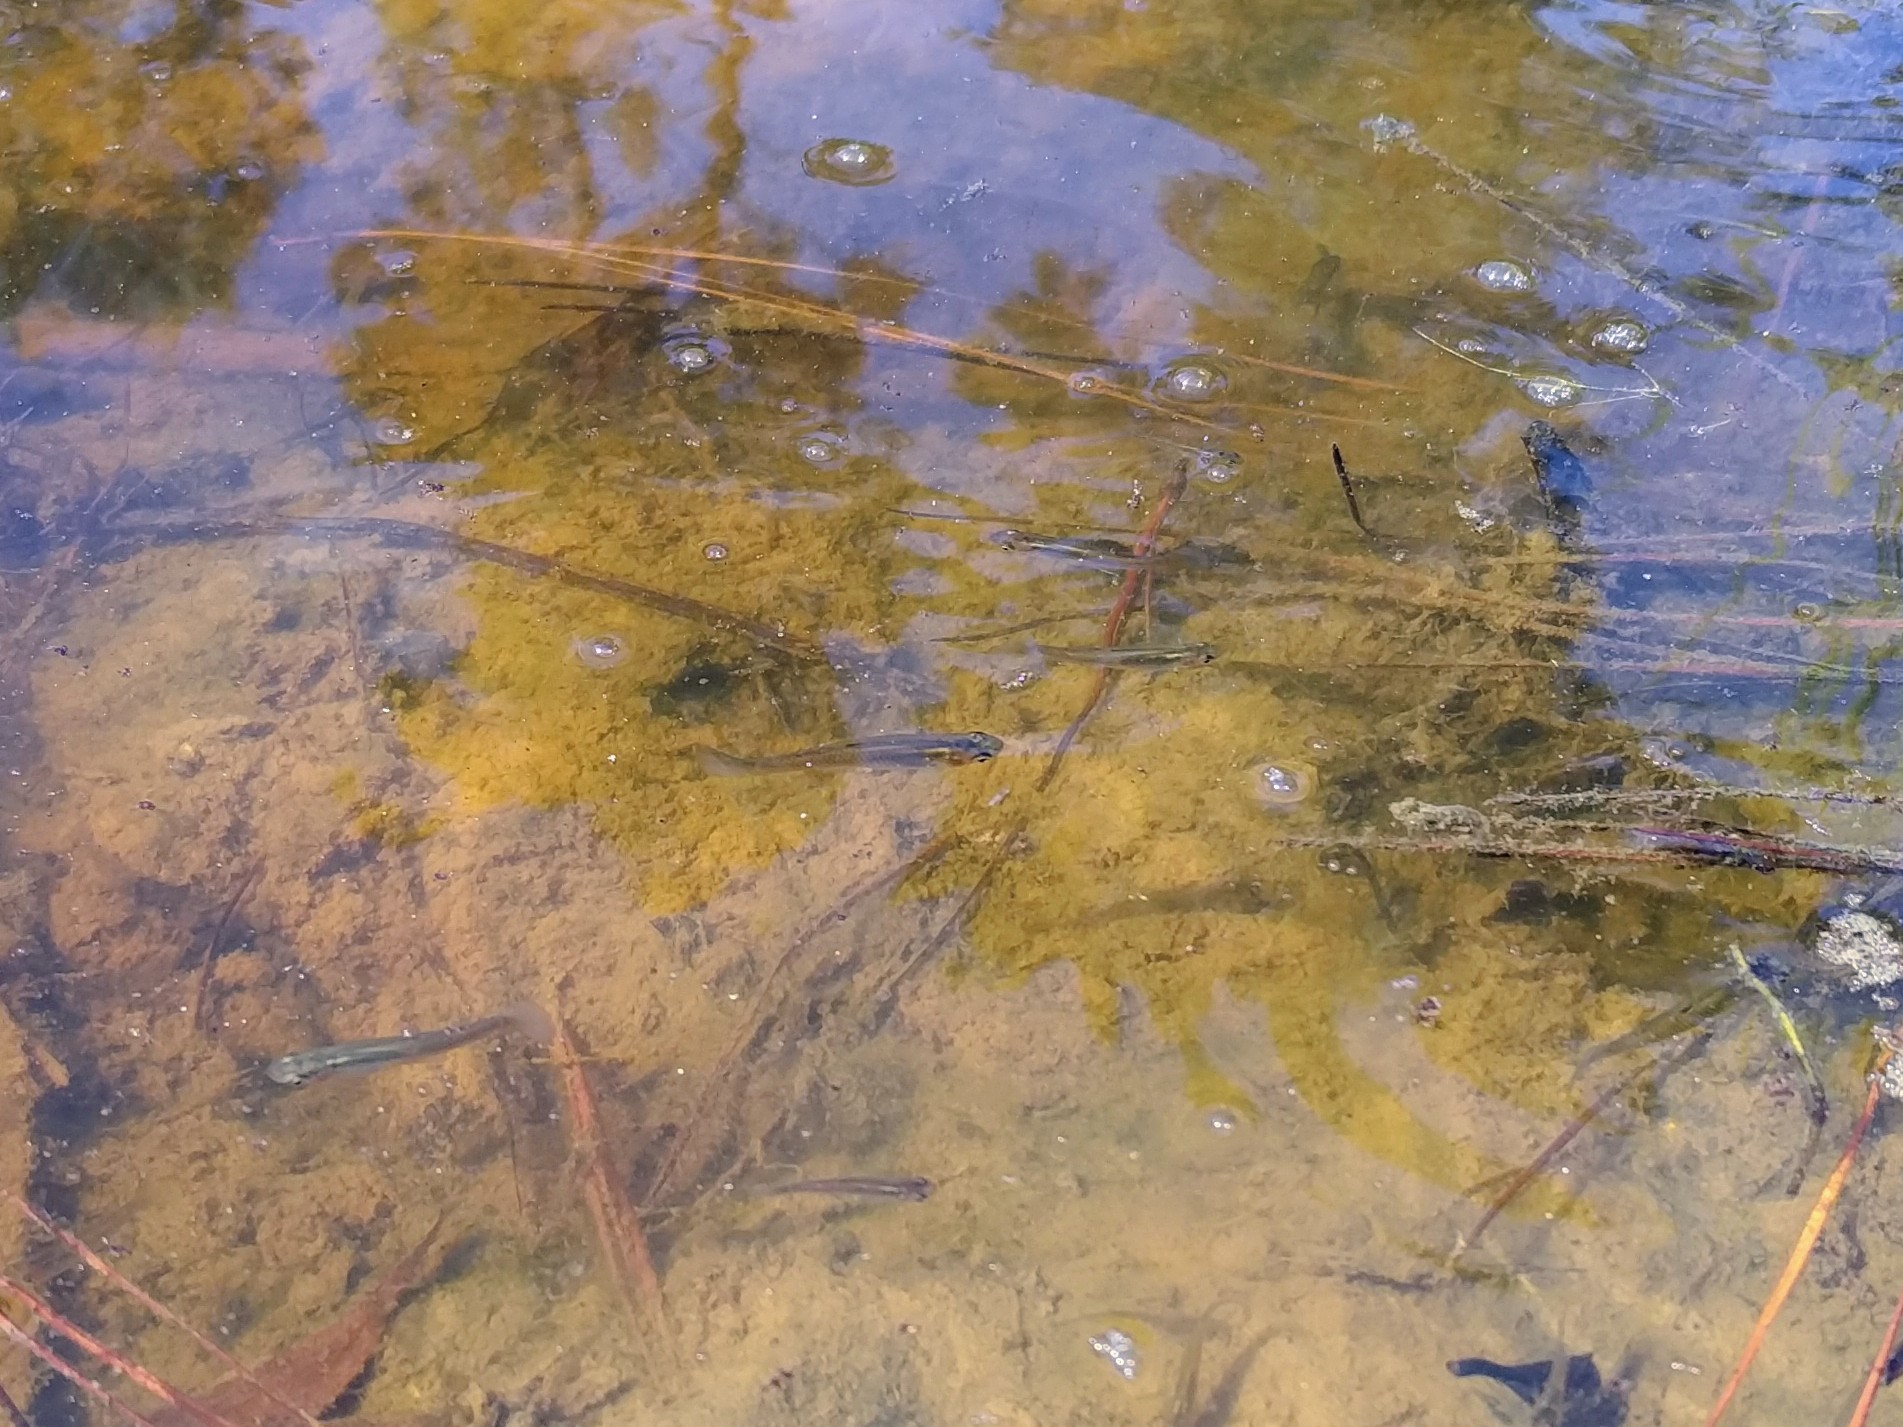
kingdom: Animalia
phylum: Chordata
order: Cyprinodontiformes
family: Poeciliidae
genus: Gambusia
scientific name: Gambusia affinis
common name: Mosquitofish
